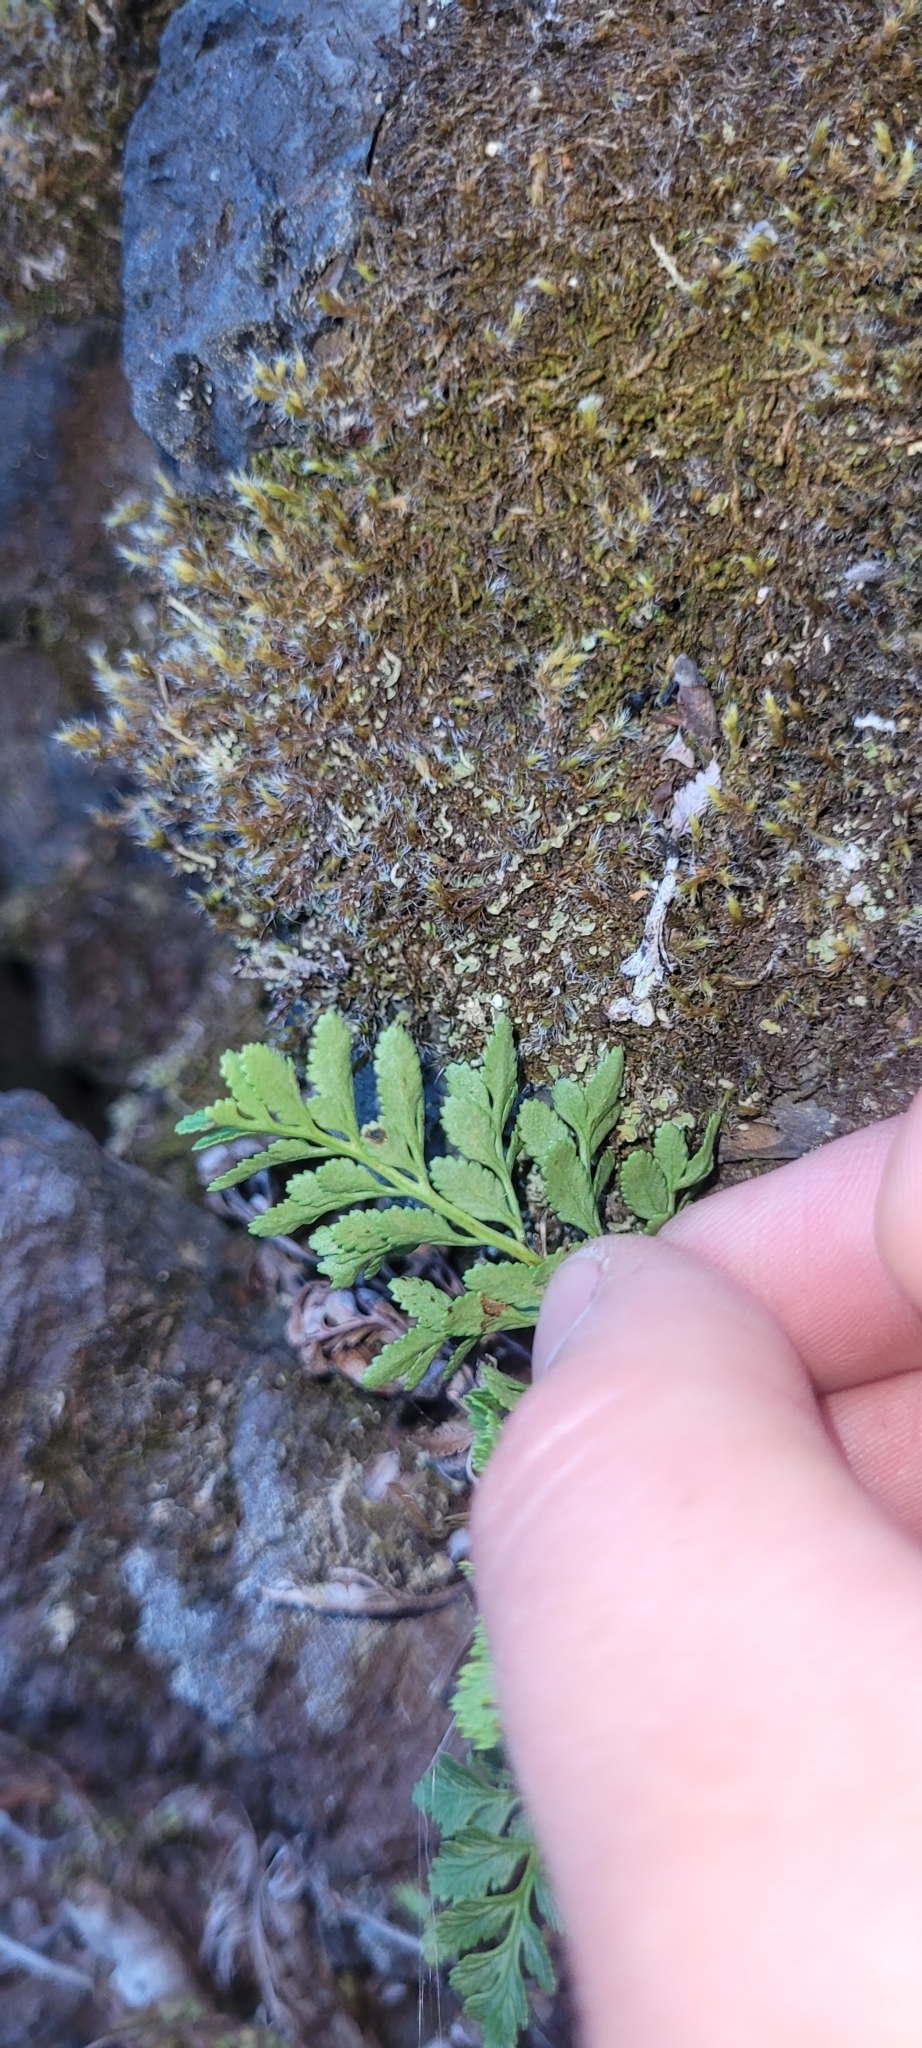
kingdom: Plantae
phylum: Tracheophyta
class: Polypodiopsida
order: Polypodiales
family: Pteridaceae
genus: Cryptogramma
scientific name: Cryptogramma acrostichoides
